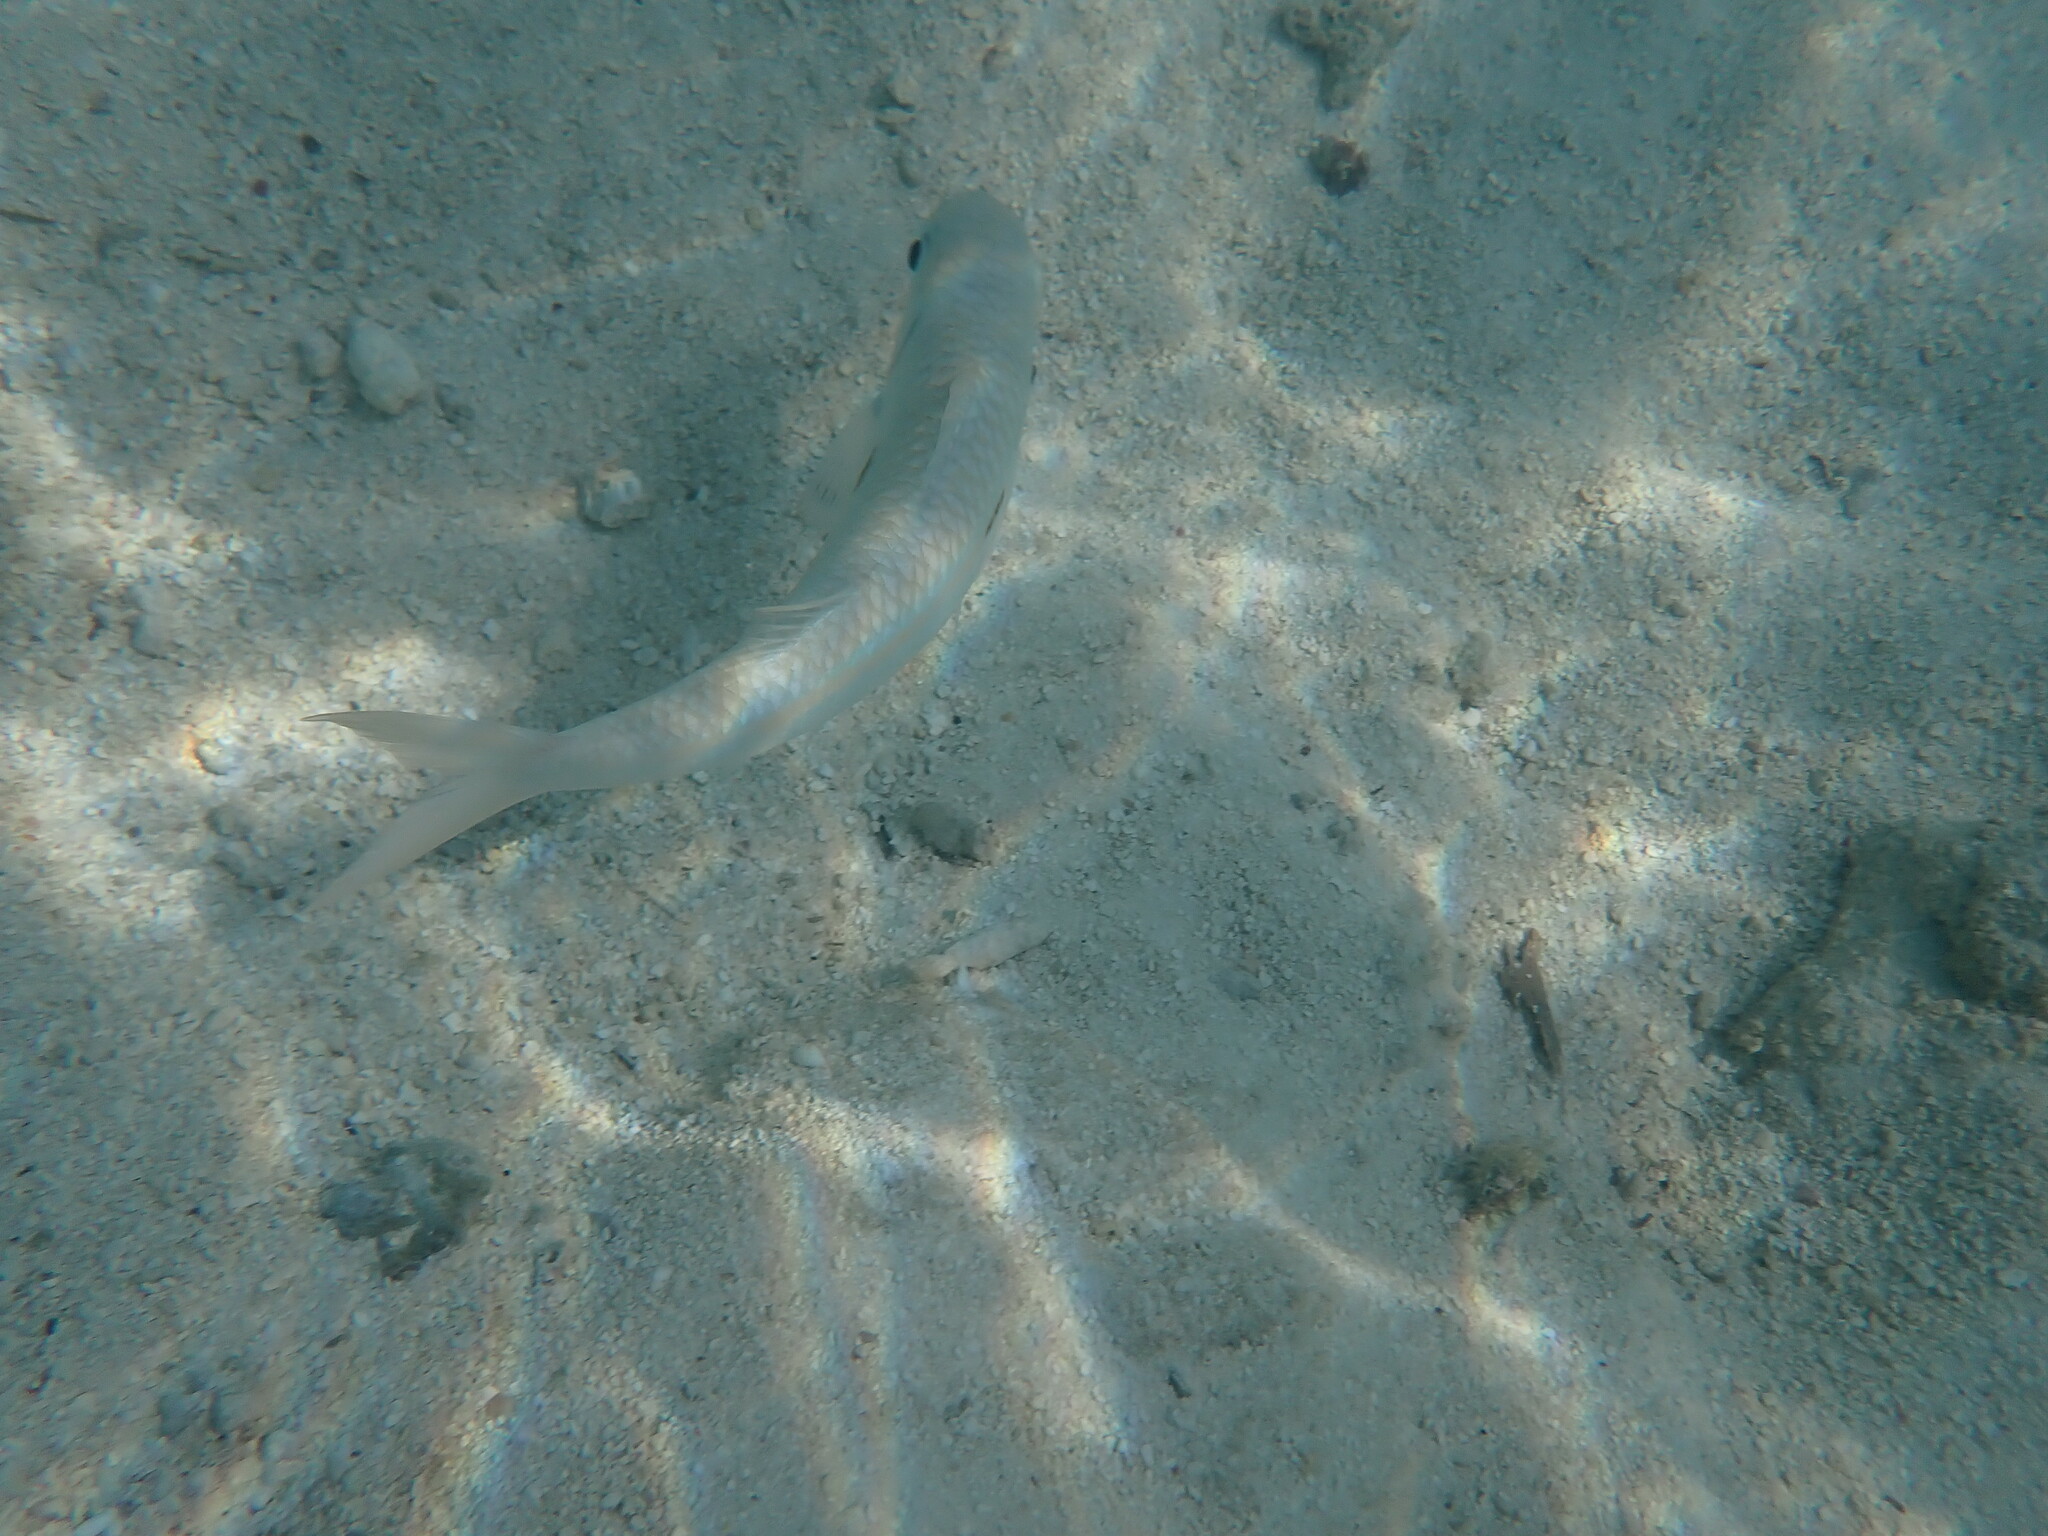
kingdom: Animalia
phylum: Chordata
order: Perciformes
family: Mullidae
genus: Mulloidichthys
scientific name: Mulloidichthys flavolineatus
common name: Yellowstripe goatfish
